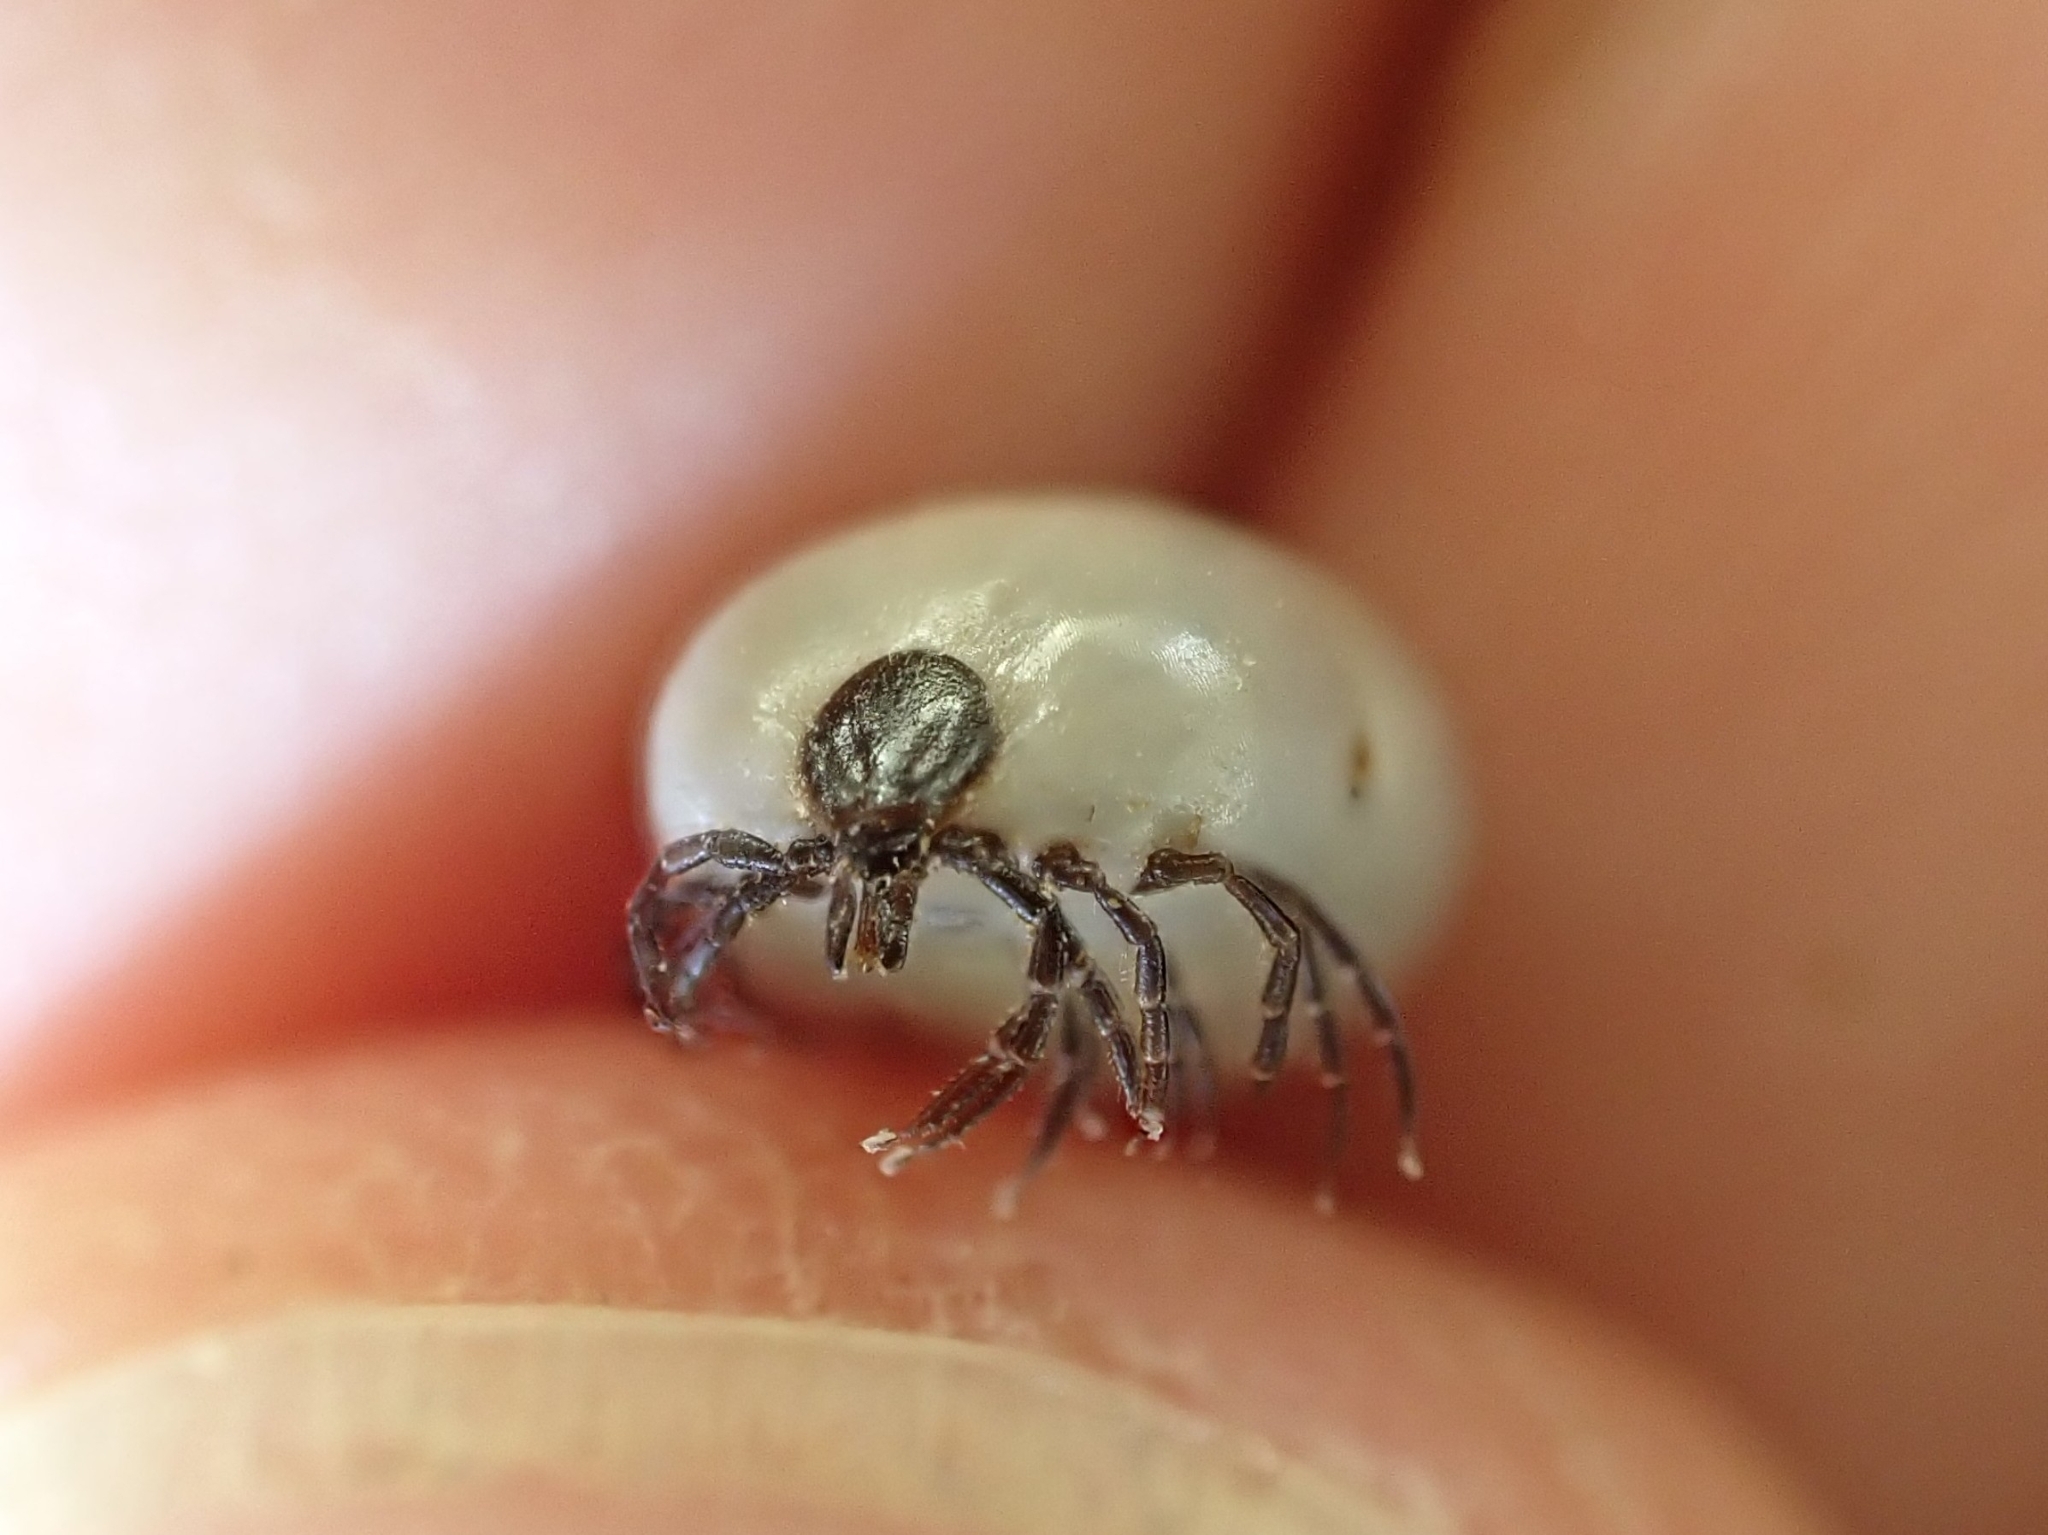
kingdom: Animalia
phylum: Arthropoda
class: Arachnida
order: Ixodida
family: Ixodidae
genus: Ixodes
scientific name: Ixodes ricinus
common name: Castor bean tick
